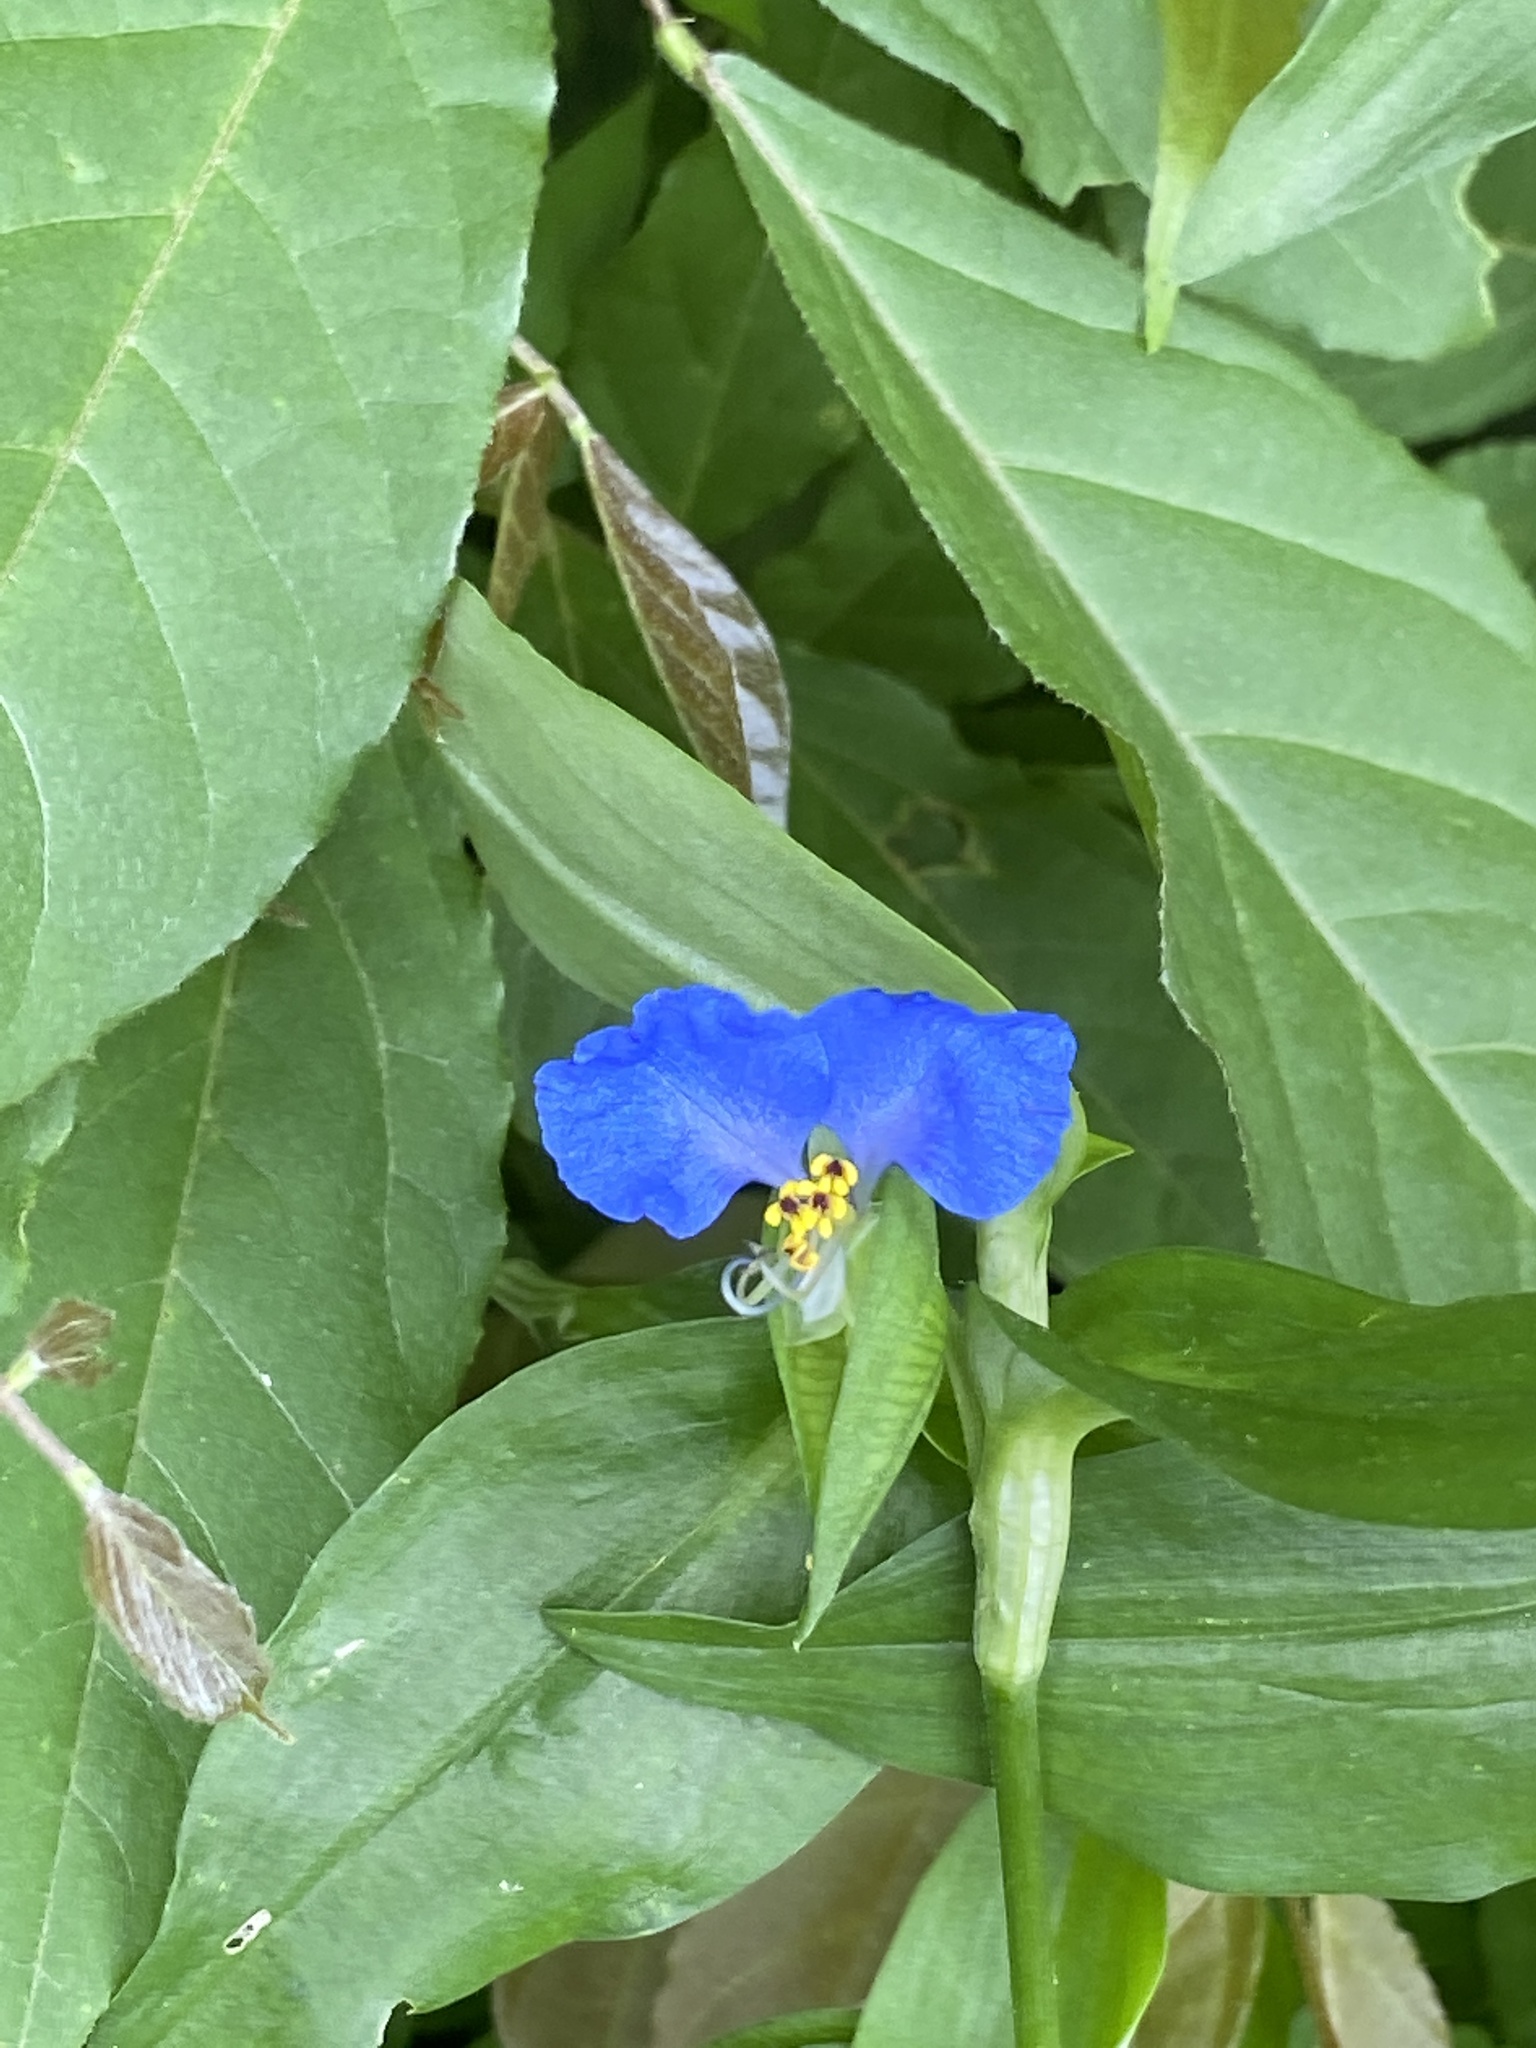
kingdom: Plantae
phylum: Tracheophyta
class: Liliopsida
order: Commelinales
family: Commelinaceae
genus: Commelina
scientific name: Commelina communis
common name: Asiatic dayflower
